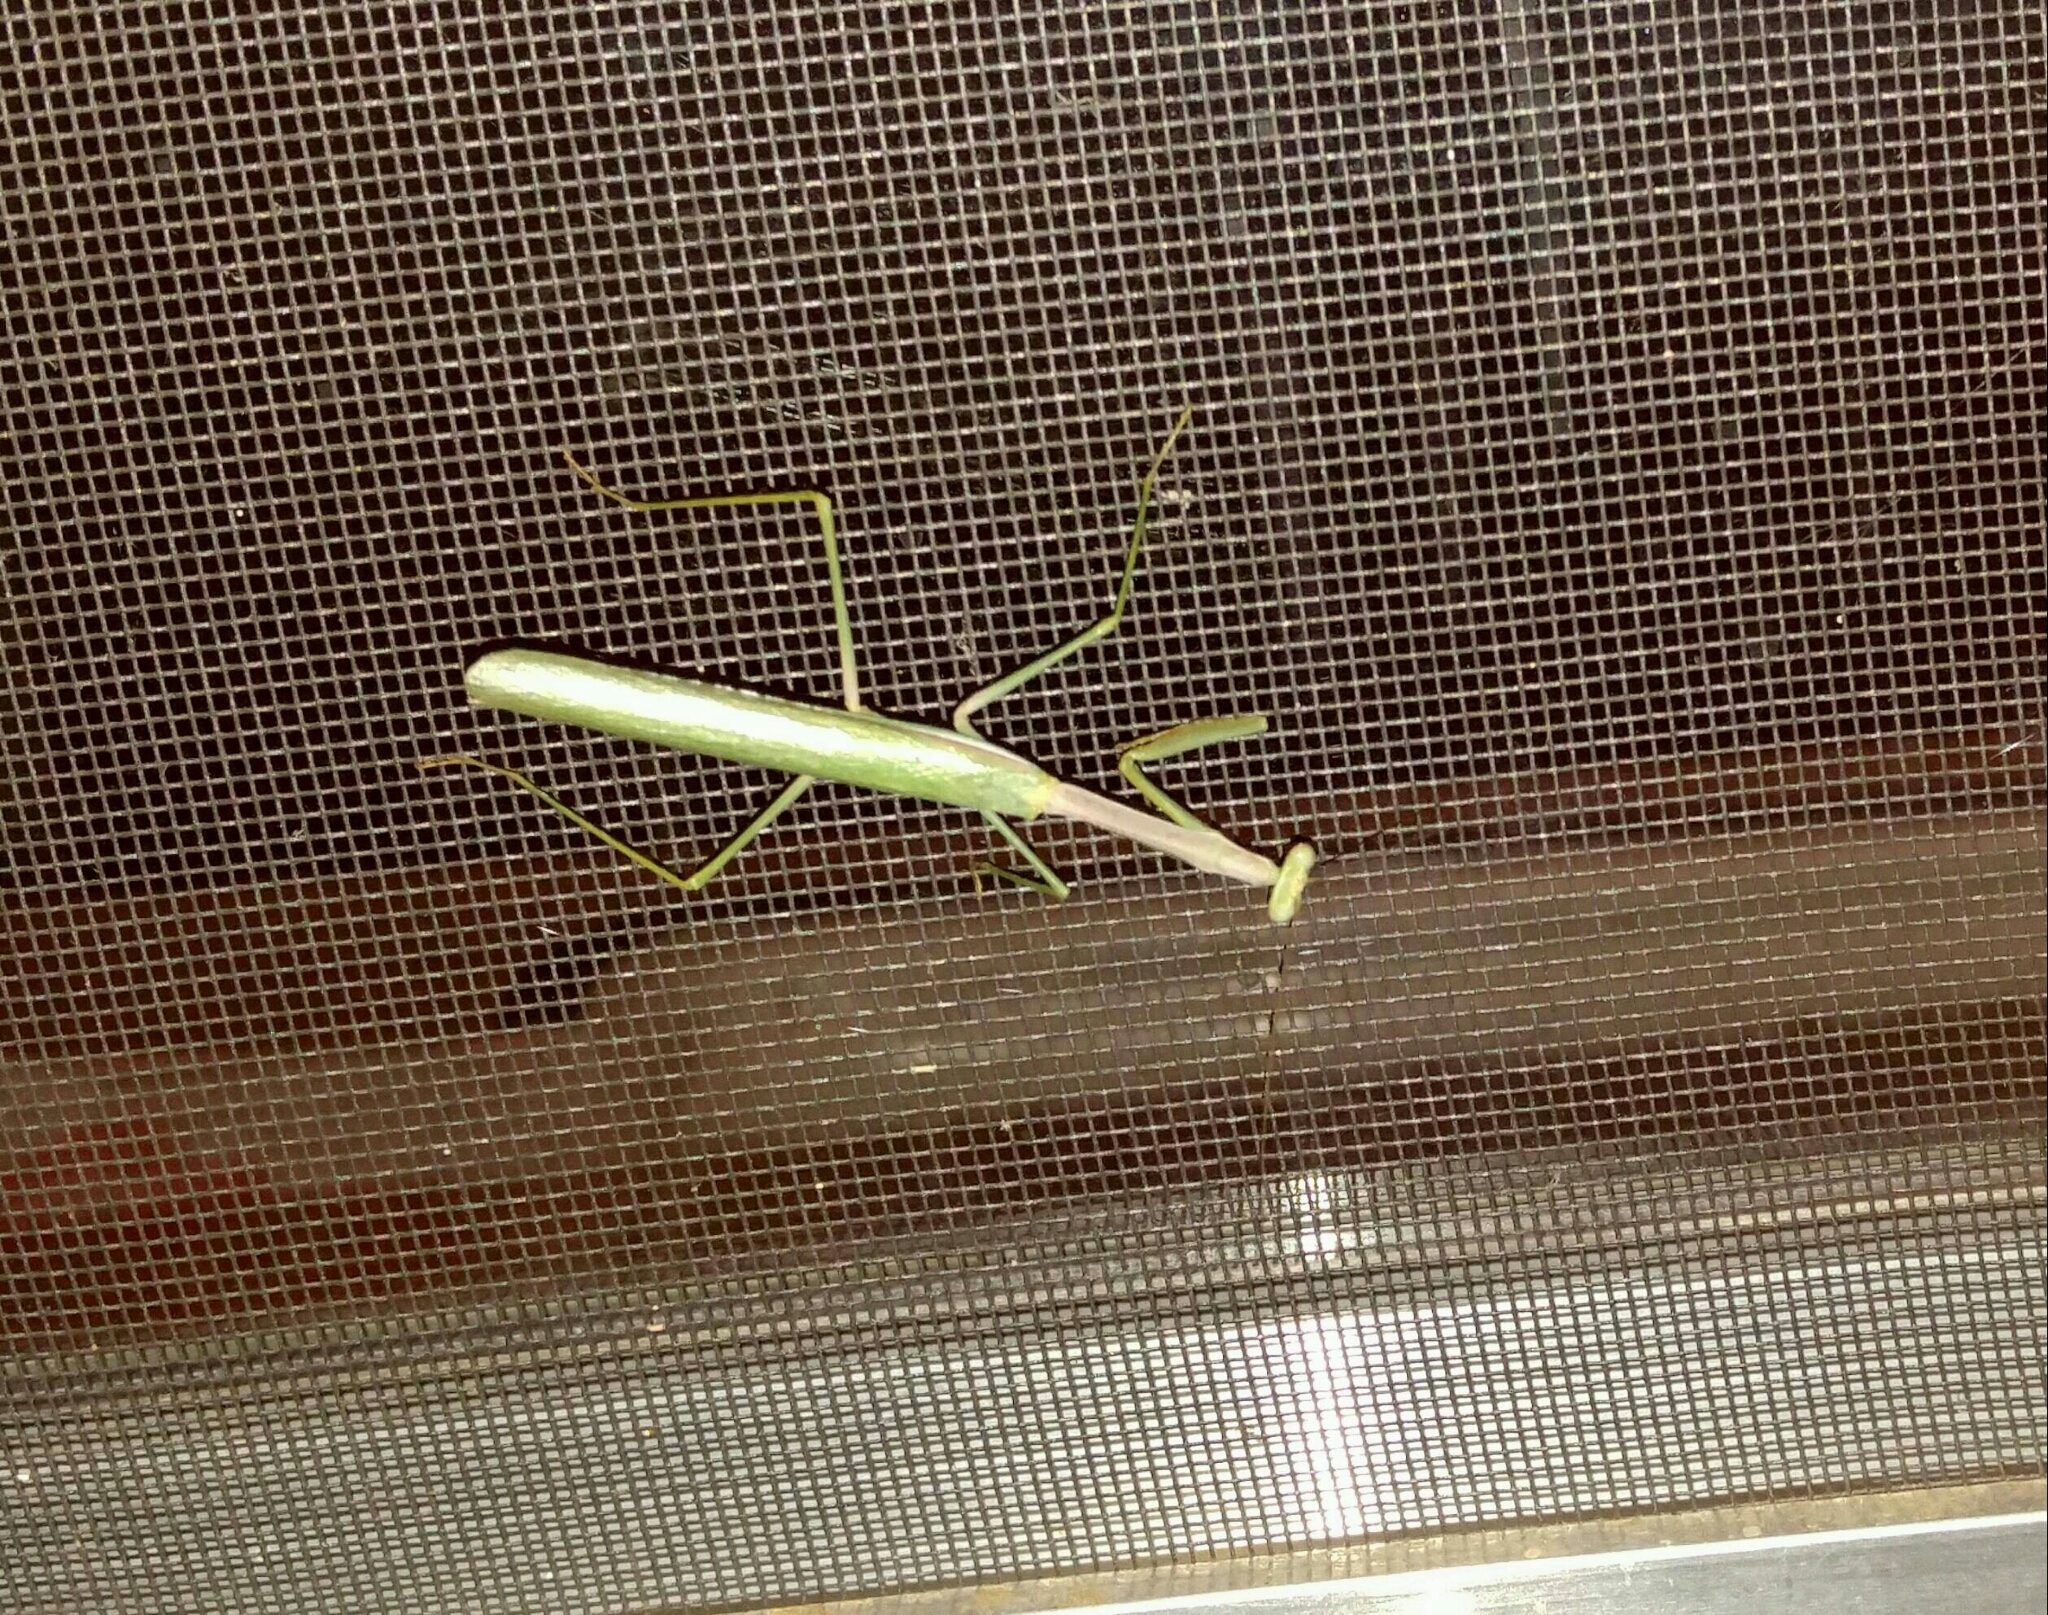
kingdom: Animalia
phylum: Arthropoda
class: Insecta
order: Mantodea
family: Mantidae
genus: Stagmomantis
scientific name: Stagmomantis limbata
